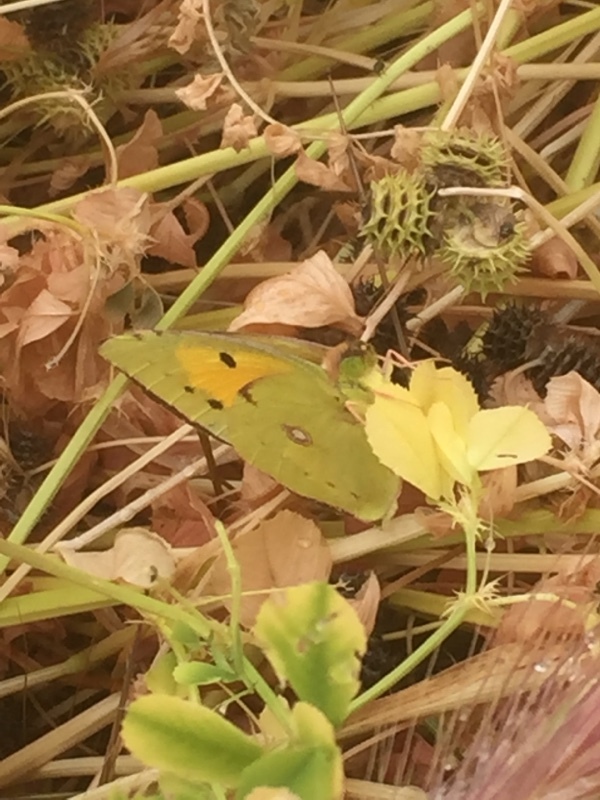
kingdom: Animalia
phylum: Arthropoda
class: Insecta
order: Lepidoptera
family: Pieridae
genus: Colias
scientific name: Colias croceus
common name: Clouded yellow
